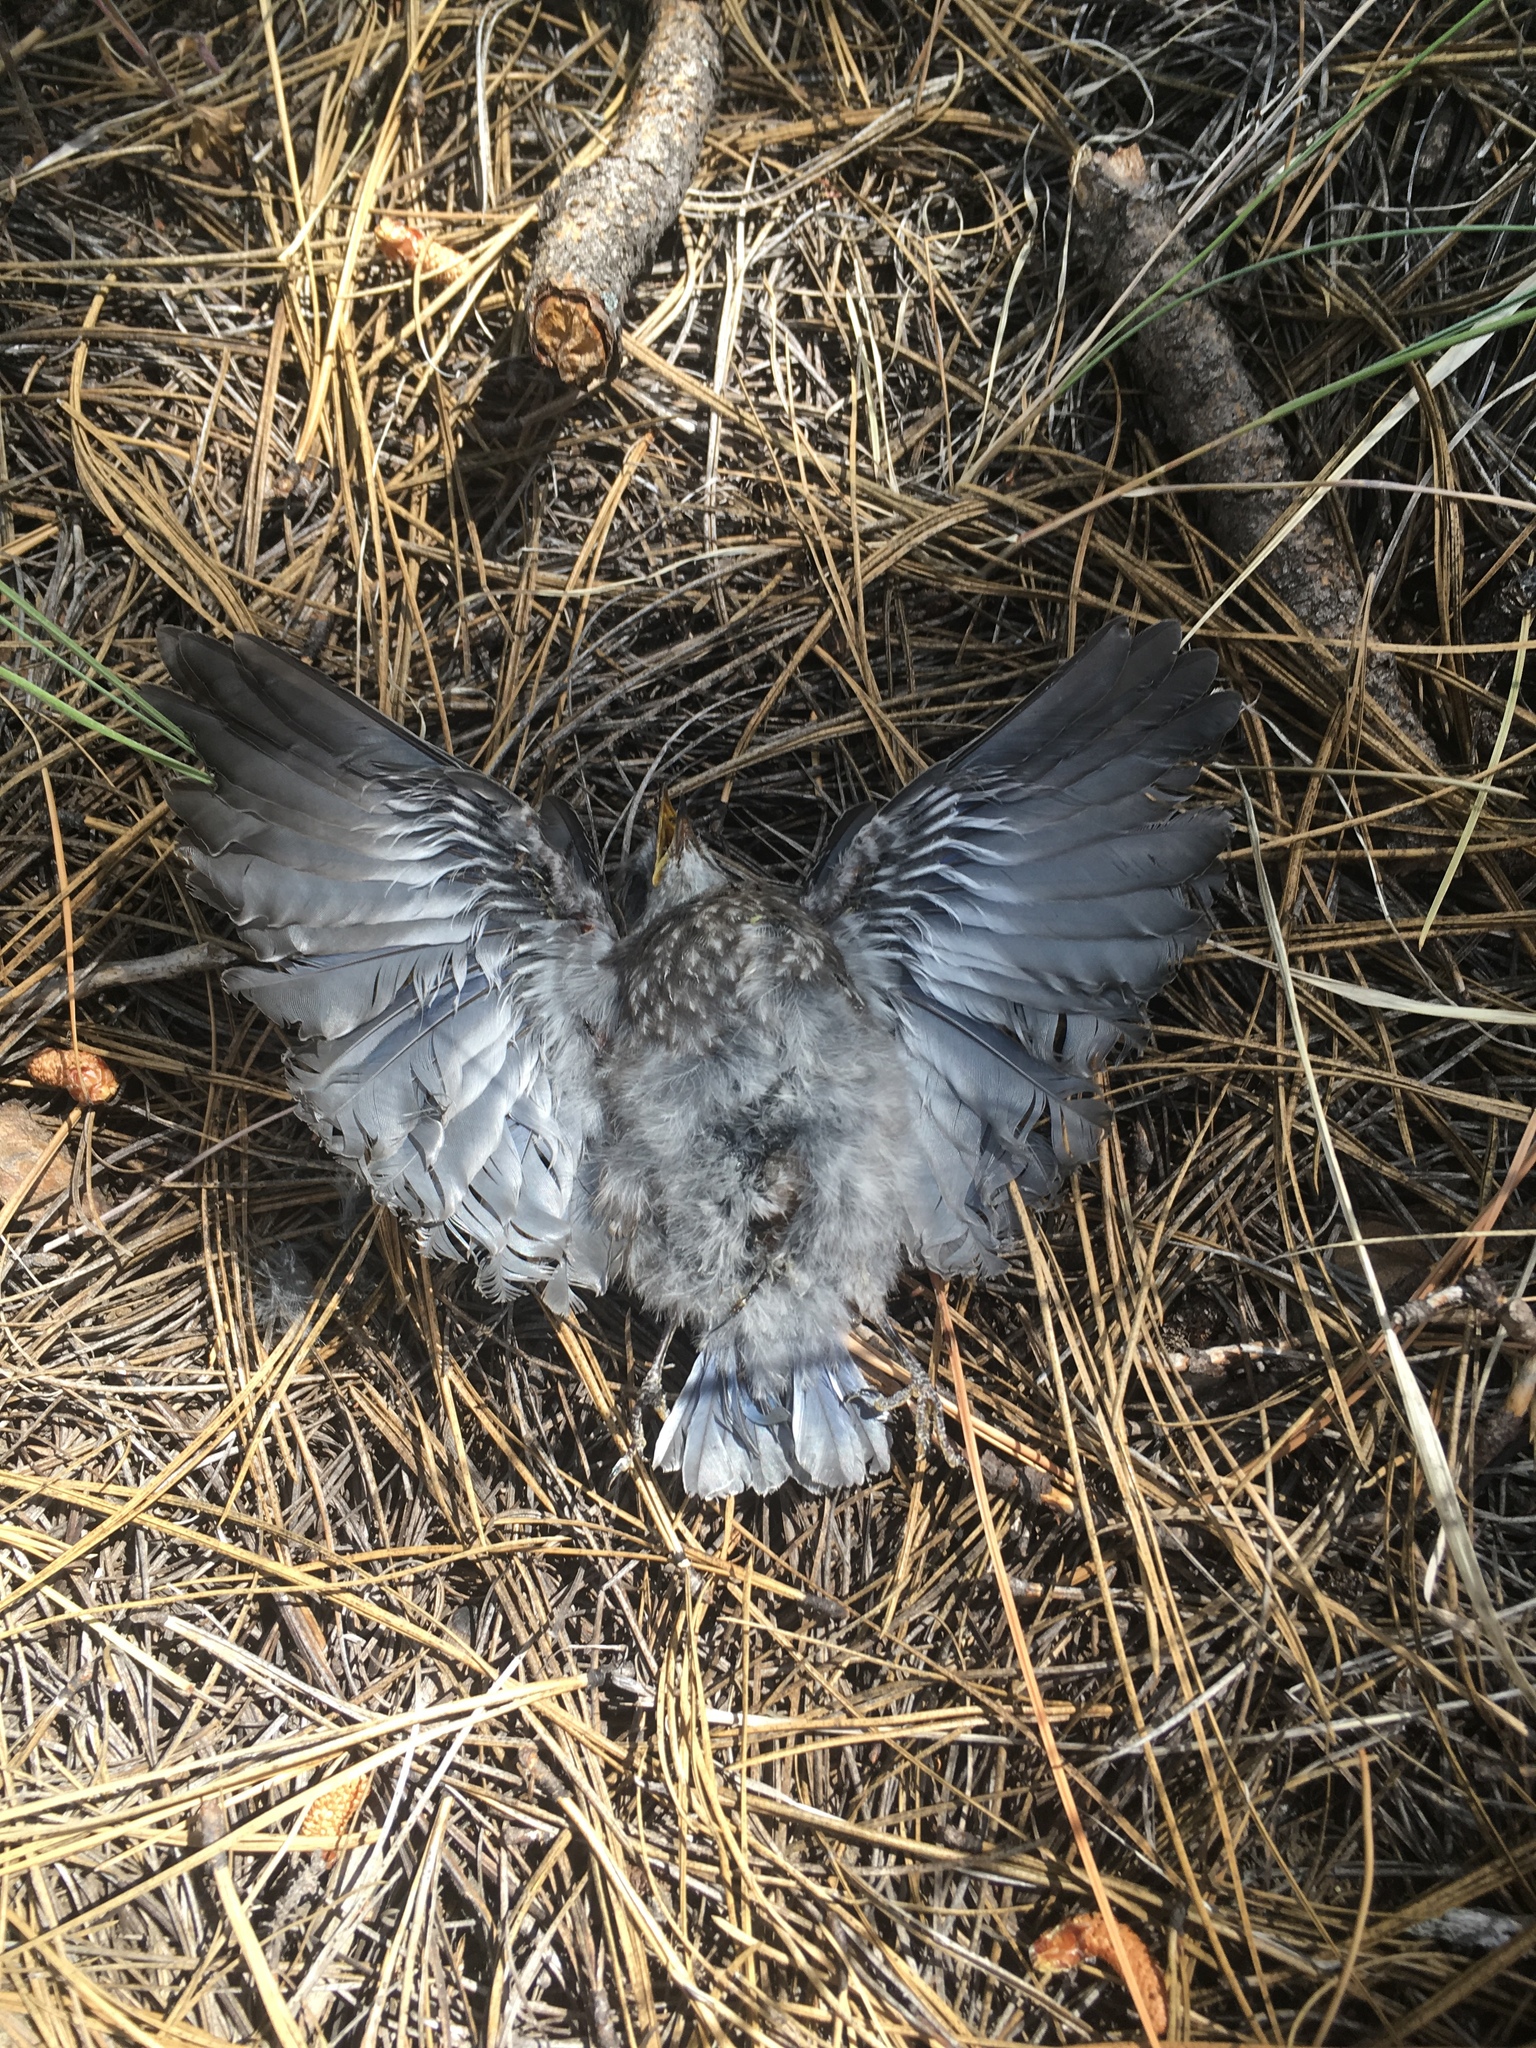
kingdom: Animalia
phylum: Chordata
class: Aves
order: Passeriformes
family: Turdidae
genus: Sialia
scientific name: Sialia mexicana
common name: Western bluebird
